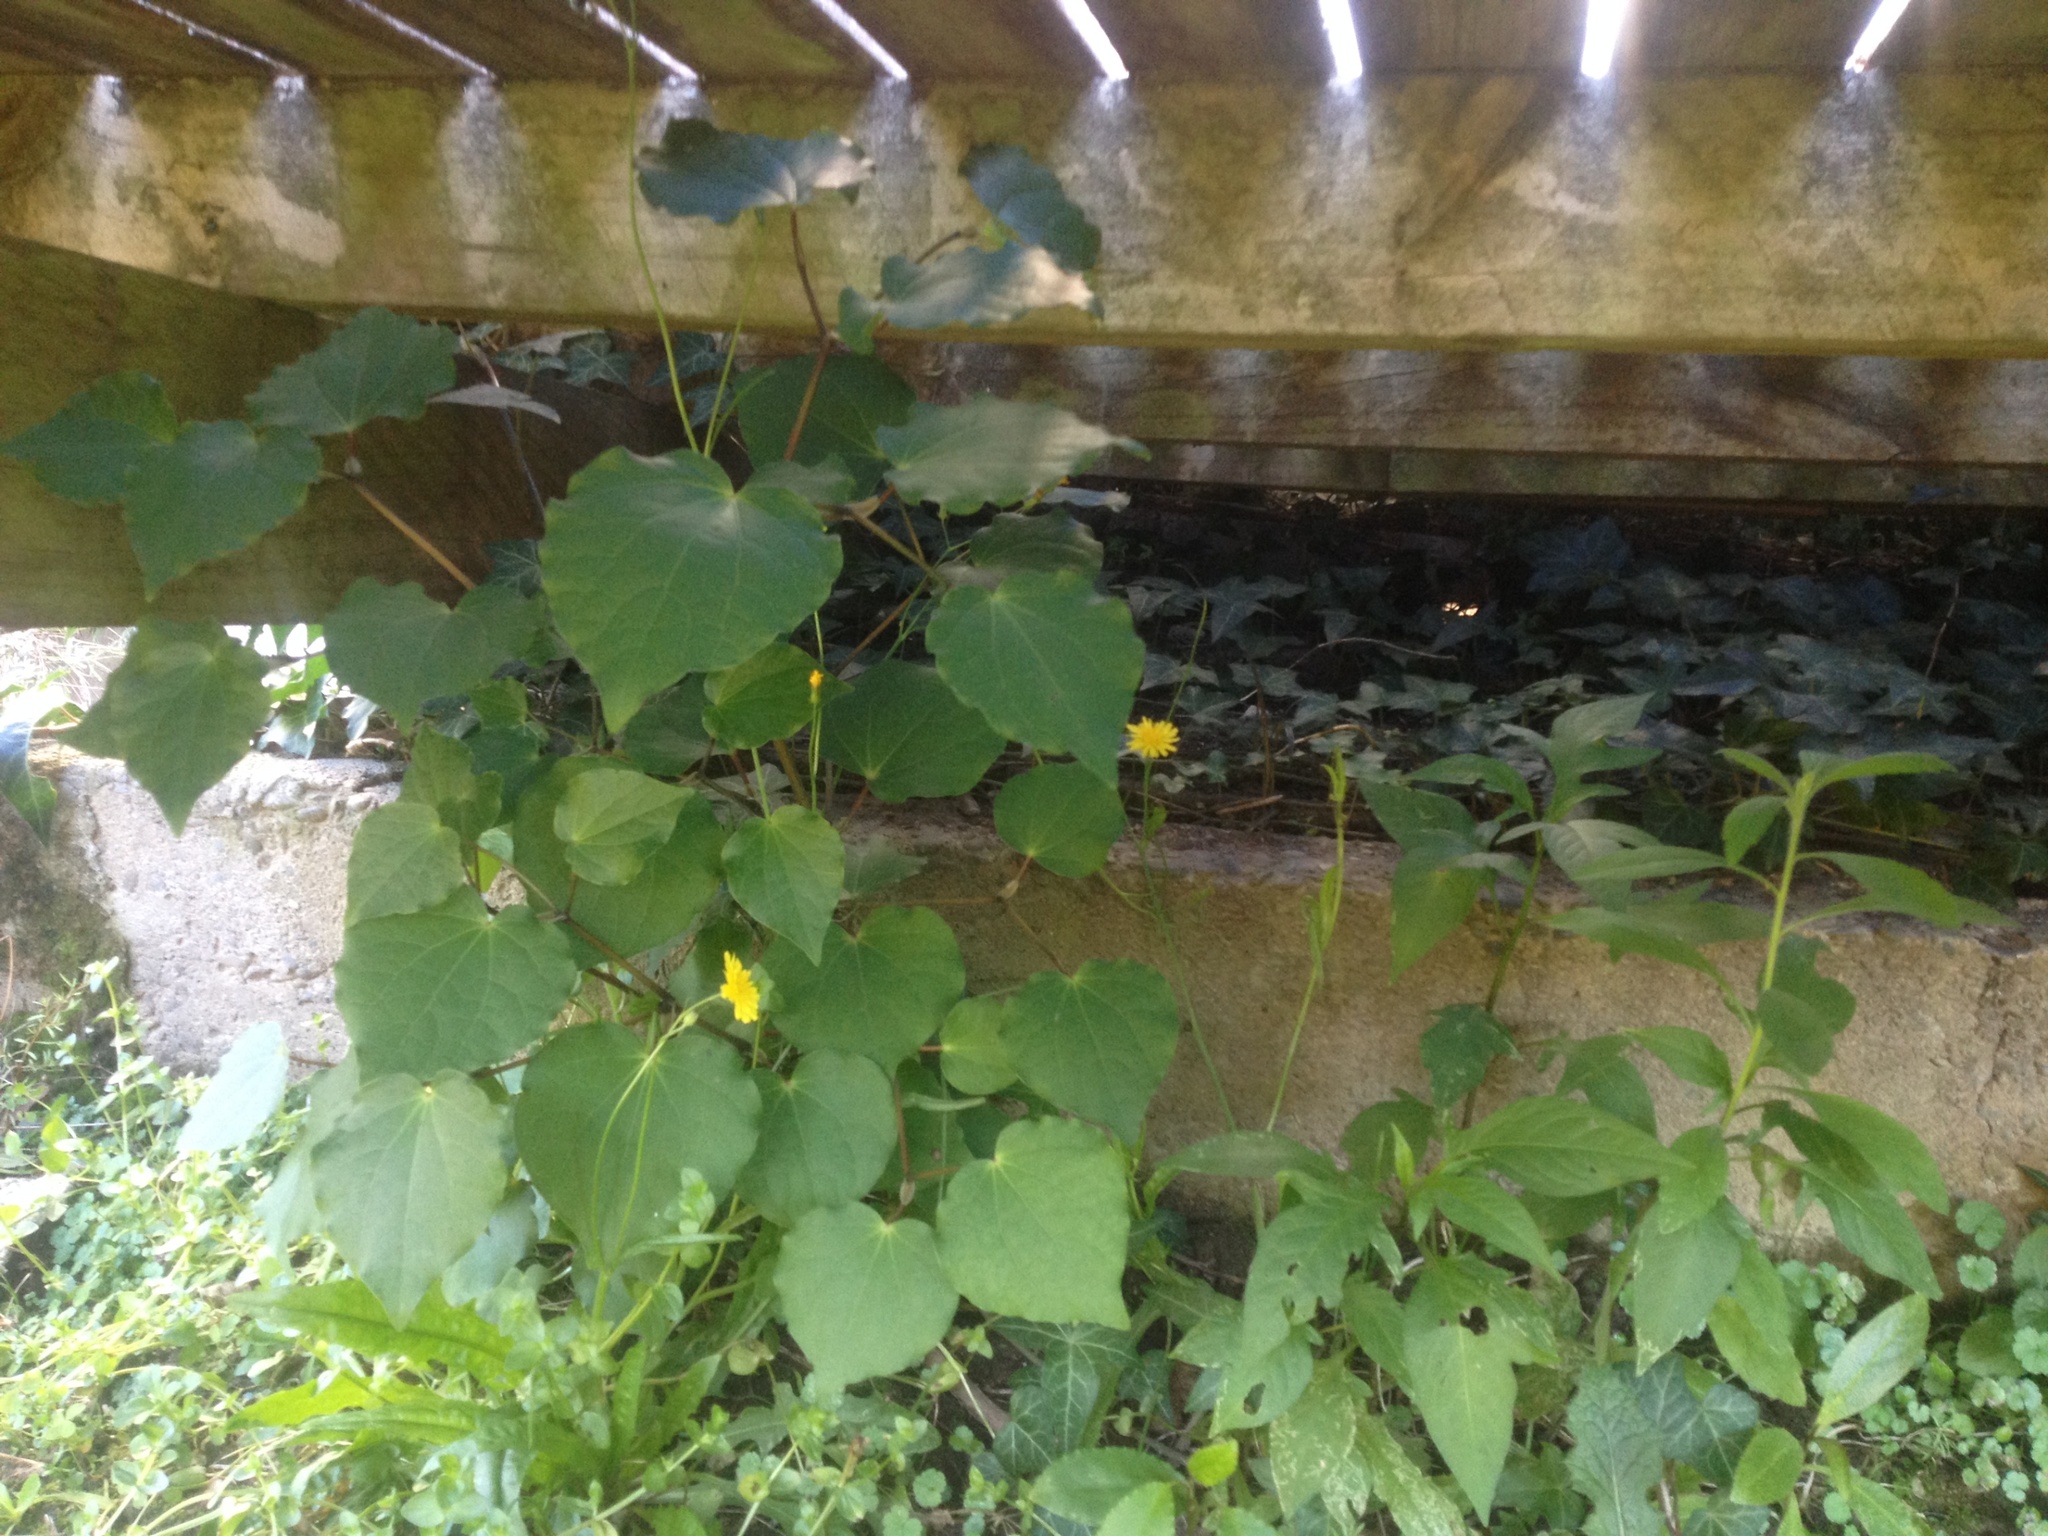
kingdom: Plantae
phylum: Tracheophyta
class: Magnoliopsida
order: Piperales
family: Piperaceae
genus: Macropiper
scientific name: Macropiper excelsum
